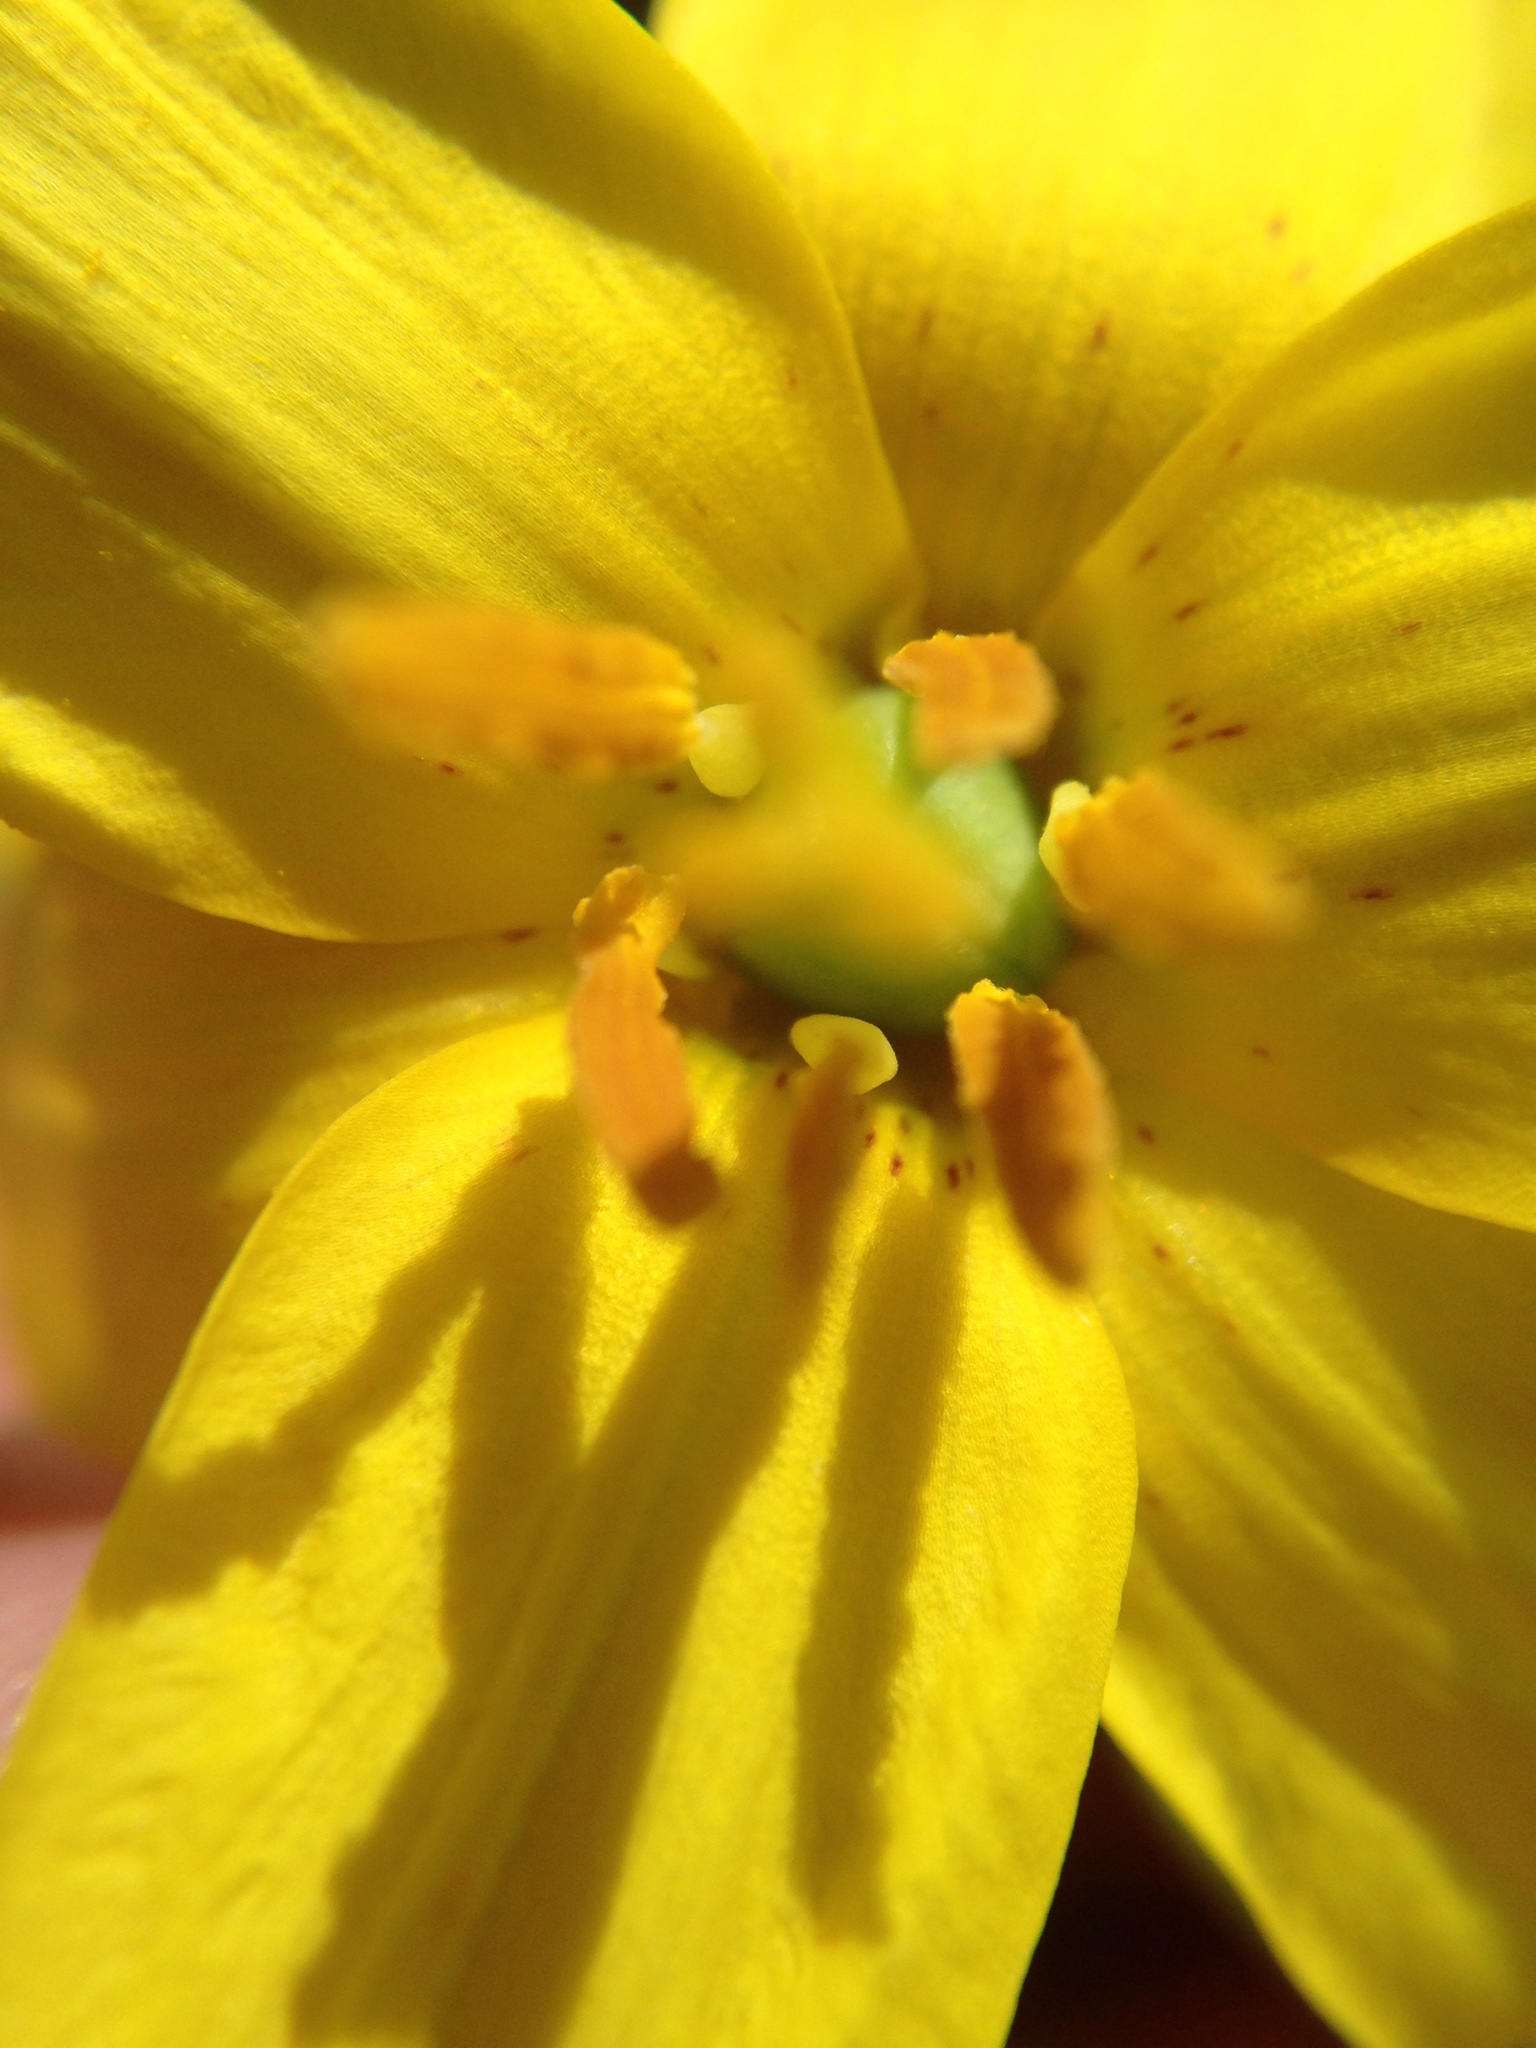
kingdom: Plantae
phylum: Tracheophyta
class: Liliopsida
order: Liliales
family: Liliaceae
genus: Erythronium
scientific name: Erythronium americanum
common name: Yellow adder's-tongue
